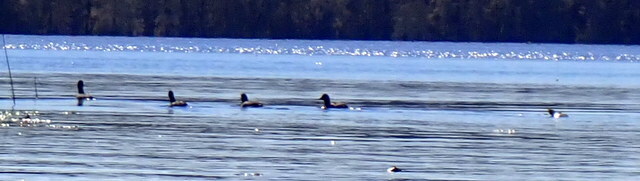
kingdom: Animalia
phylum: Chordata
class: Aves
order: Gruiformes
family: Rallidae
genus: Fulica
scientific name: Fulica americana
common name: American coot
